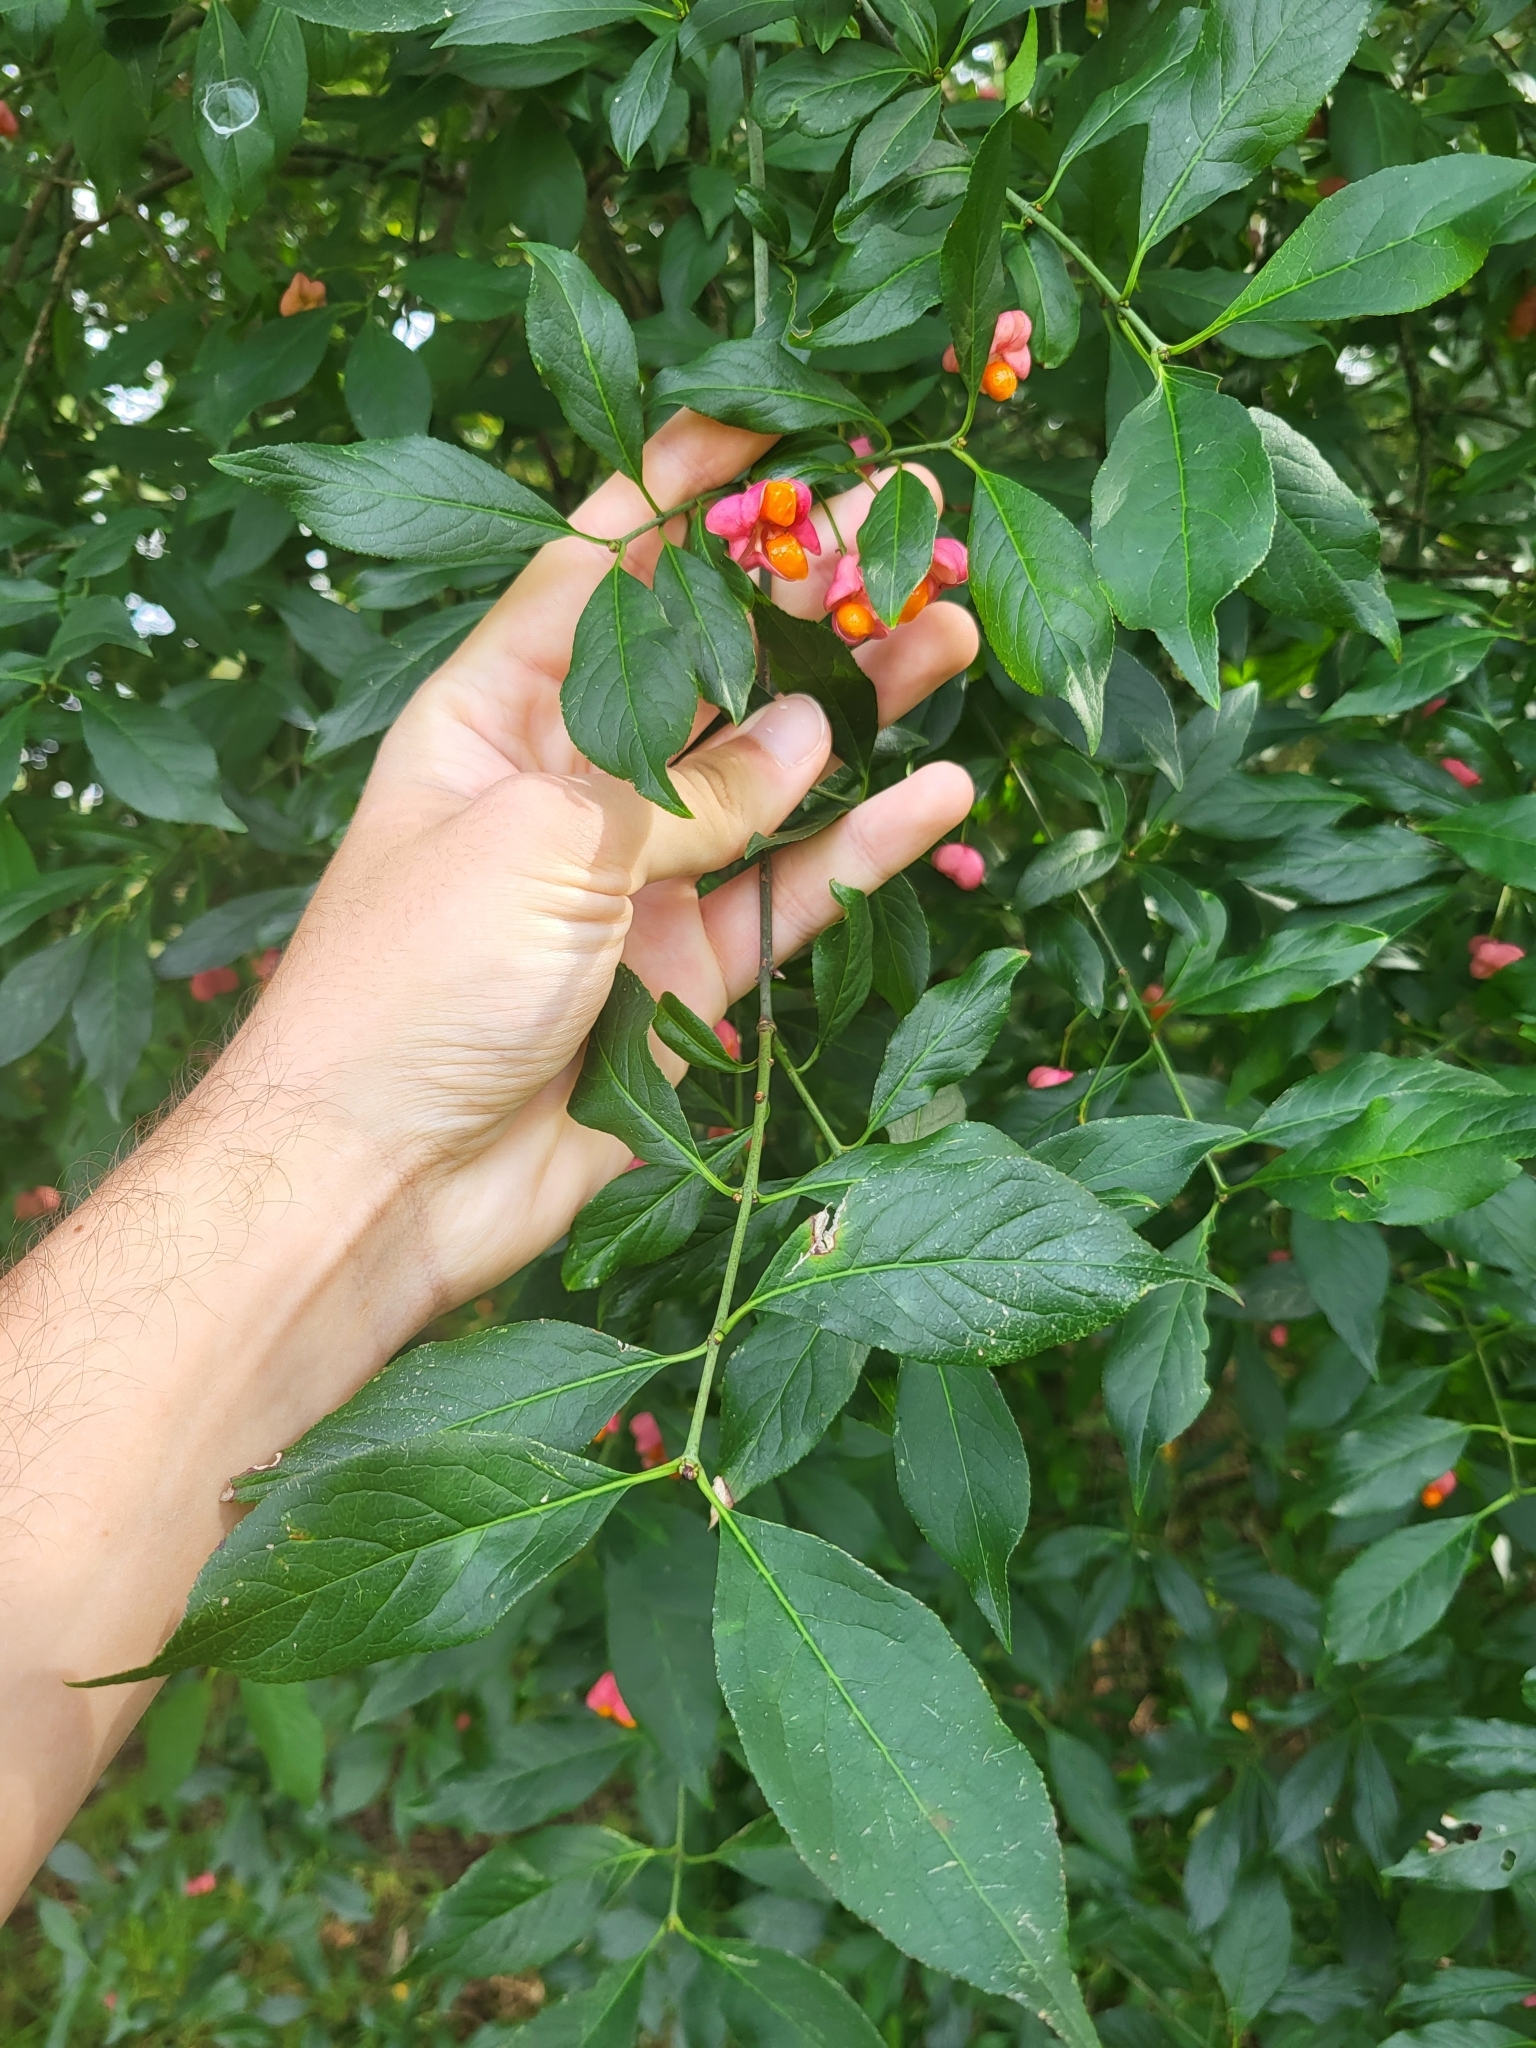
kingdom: Plantae
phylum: Tracheophyta
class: Magnoliopsida
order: Celastrales
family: Celastraceae
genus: Euonymus
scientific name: Euonymus europaeus
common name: Spindle
